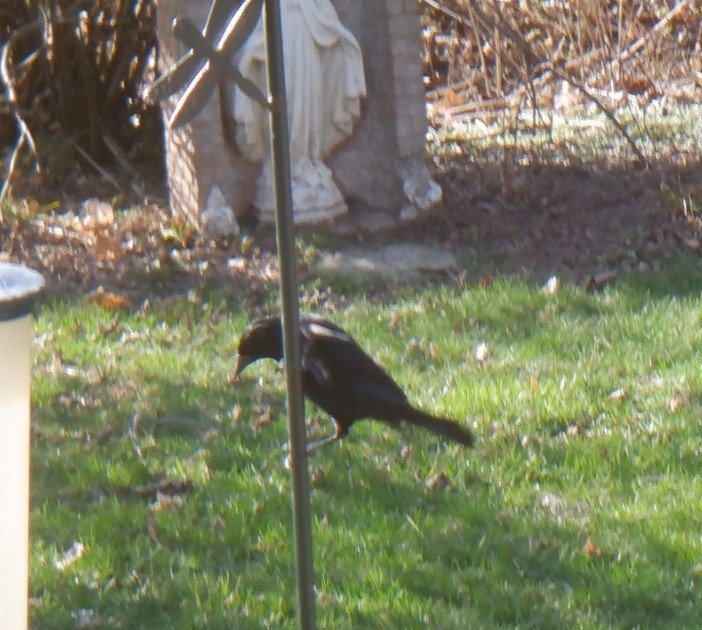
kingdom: Animalia
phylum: Chordata
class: Aves
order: Passeriformes
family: Icteridae
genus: Agelaius
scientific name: Agelaius phoeniceus
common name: Red-winged blackbird
